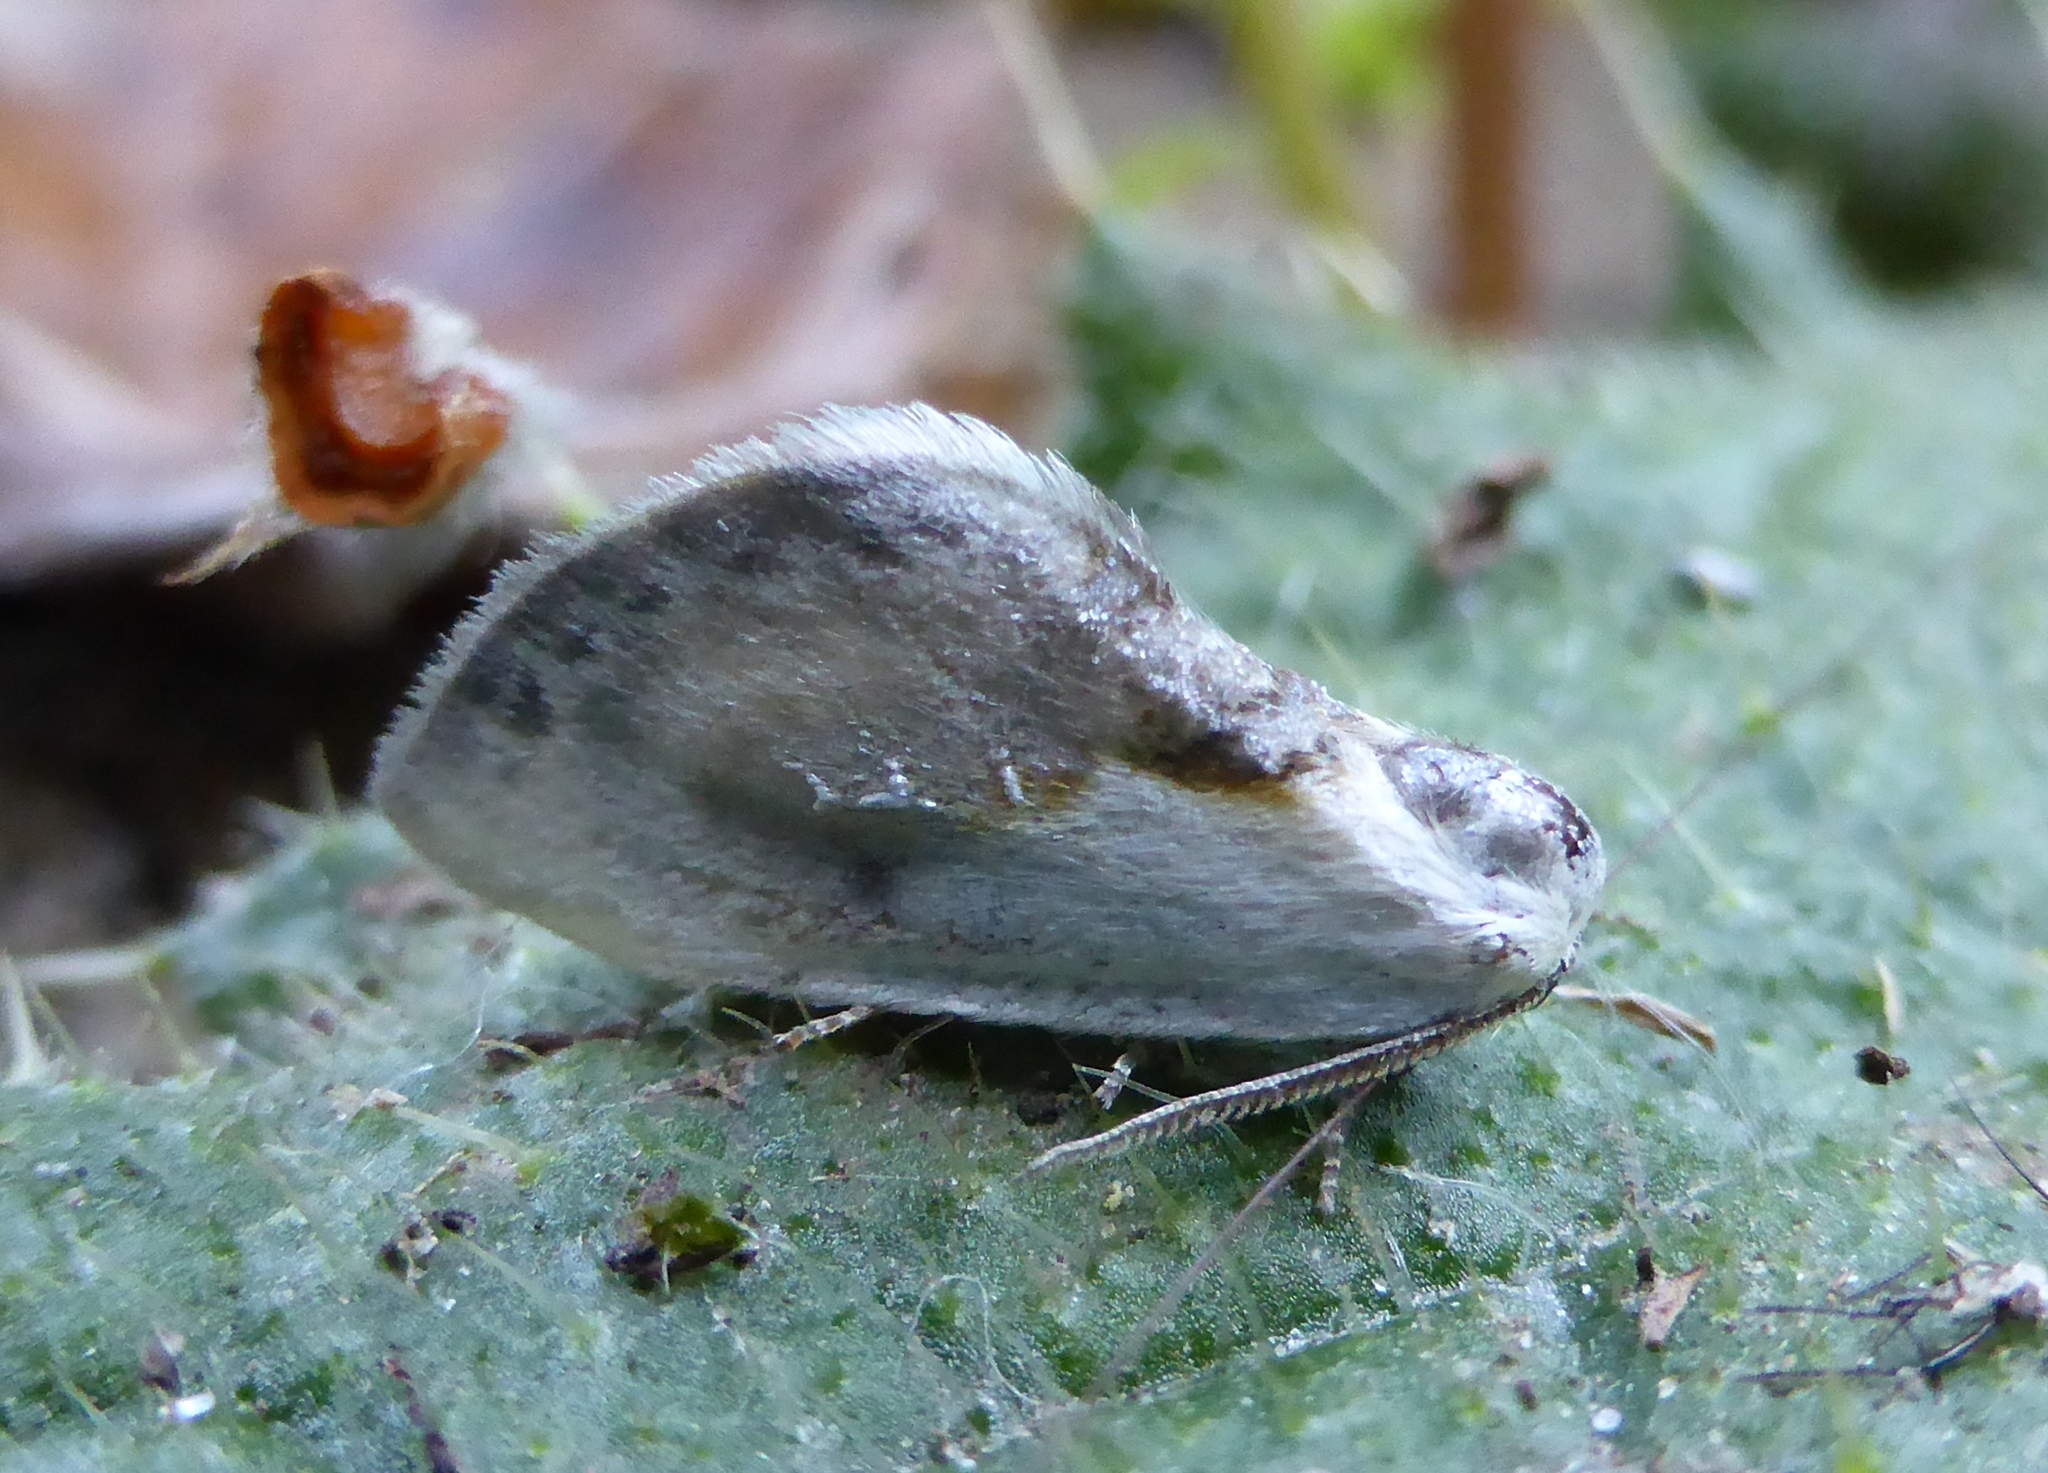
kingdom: Animalia
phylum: Arthropoda
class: Insecta
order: Lepidoptera
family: Drepanidae
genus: Cilix
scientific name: Cilix glaucata
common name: Chinese character
